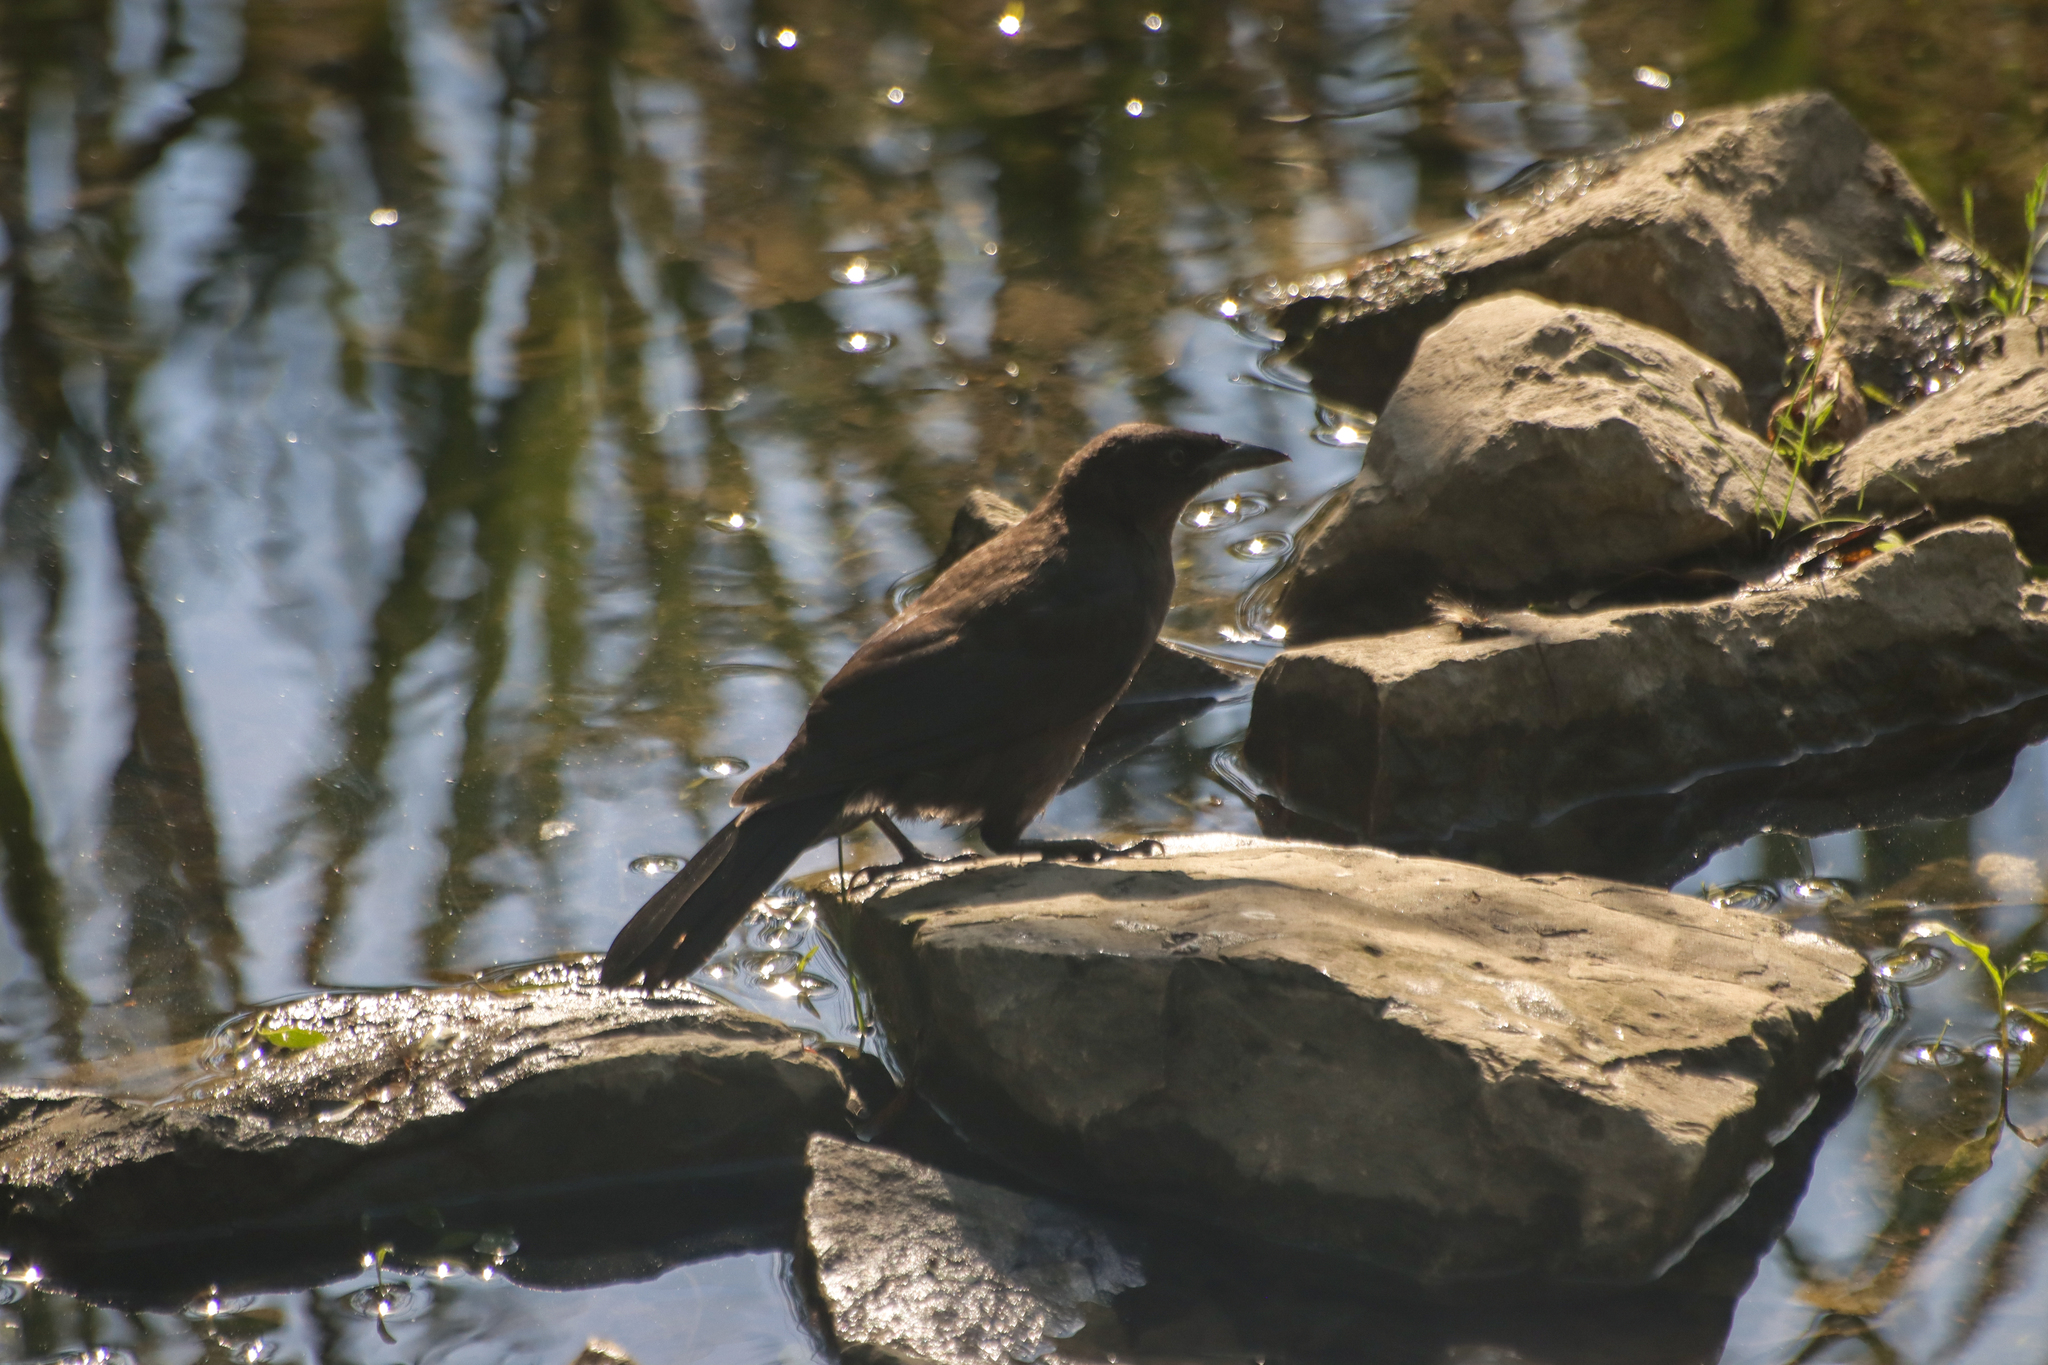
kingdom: Animalia
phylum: Chordata
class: Aves
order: Passeriformes
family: Icteridae
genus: Quiscalus
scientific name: Quiscalus quiscula
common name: Common grackle
